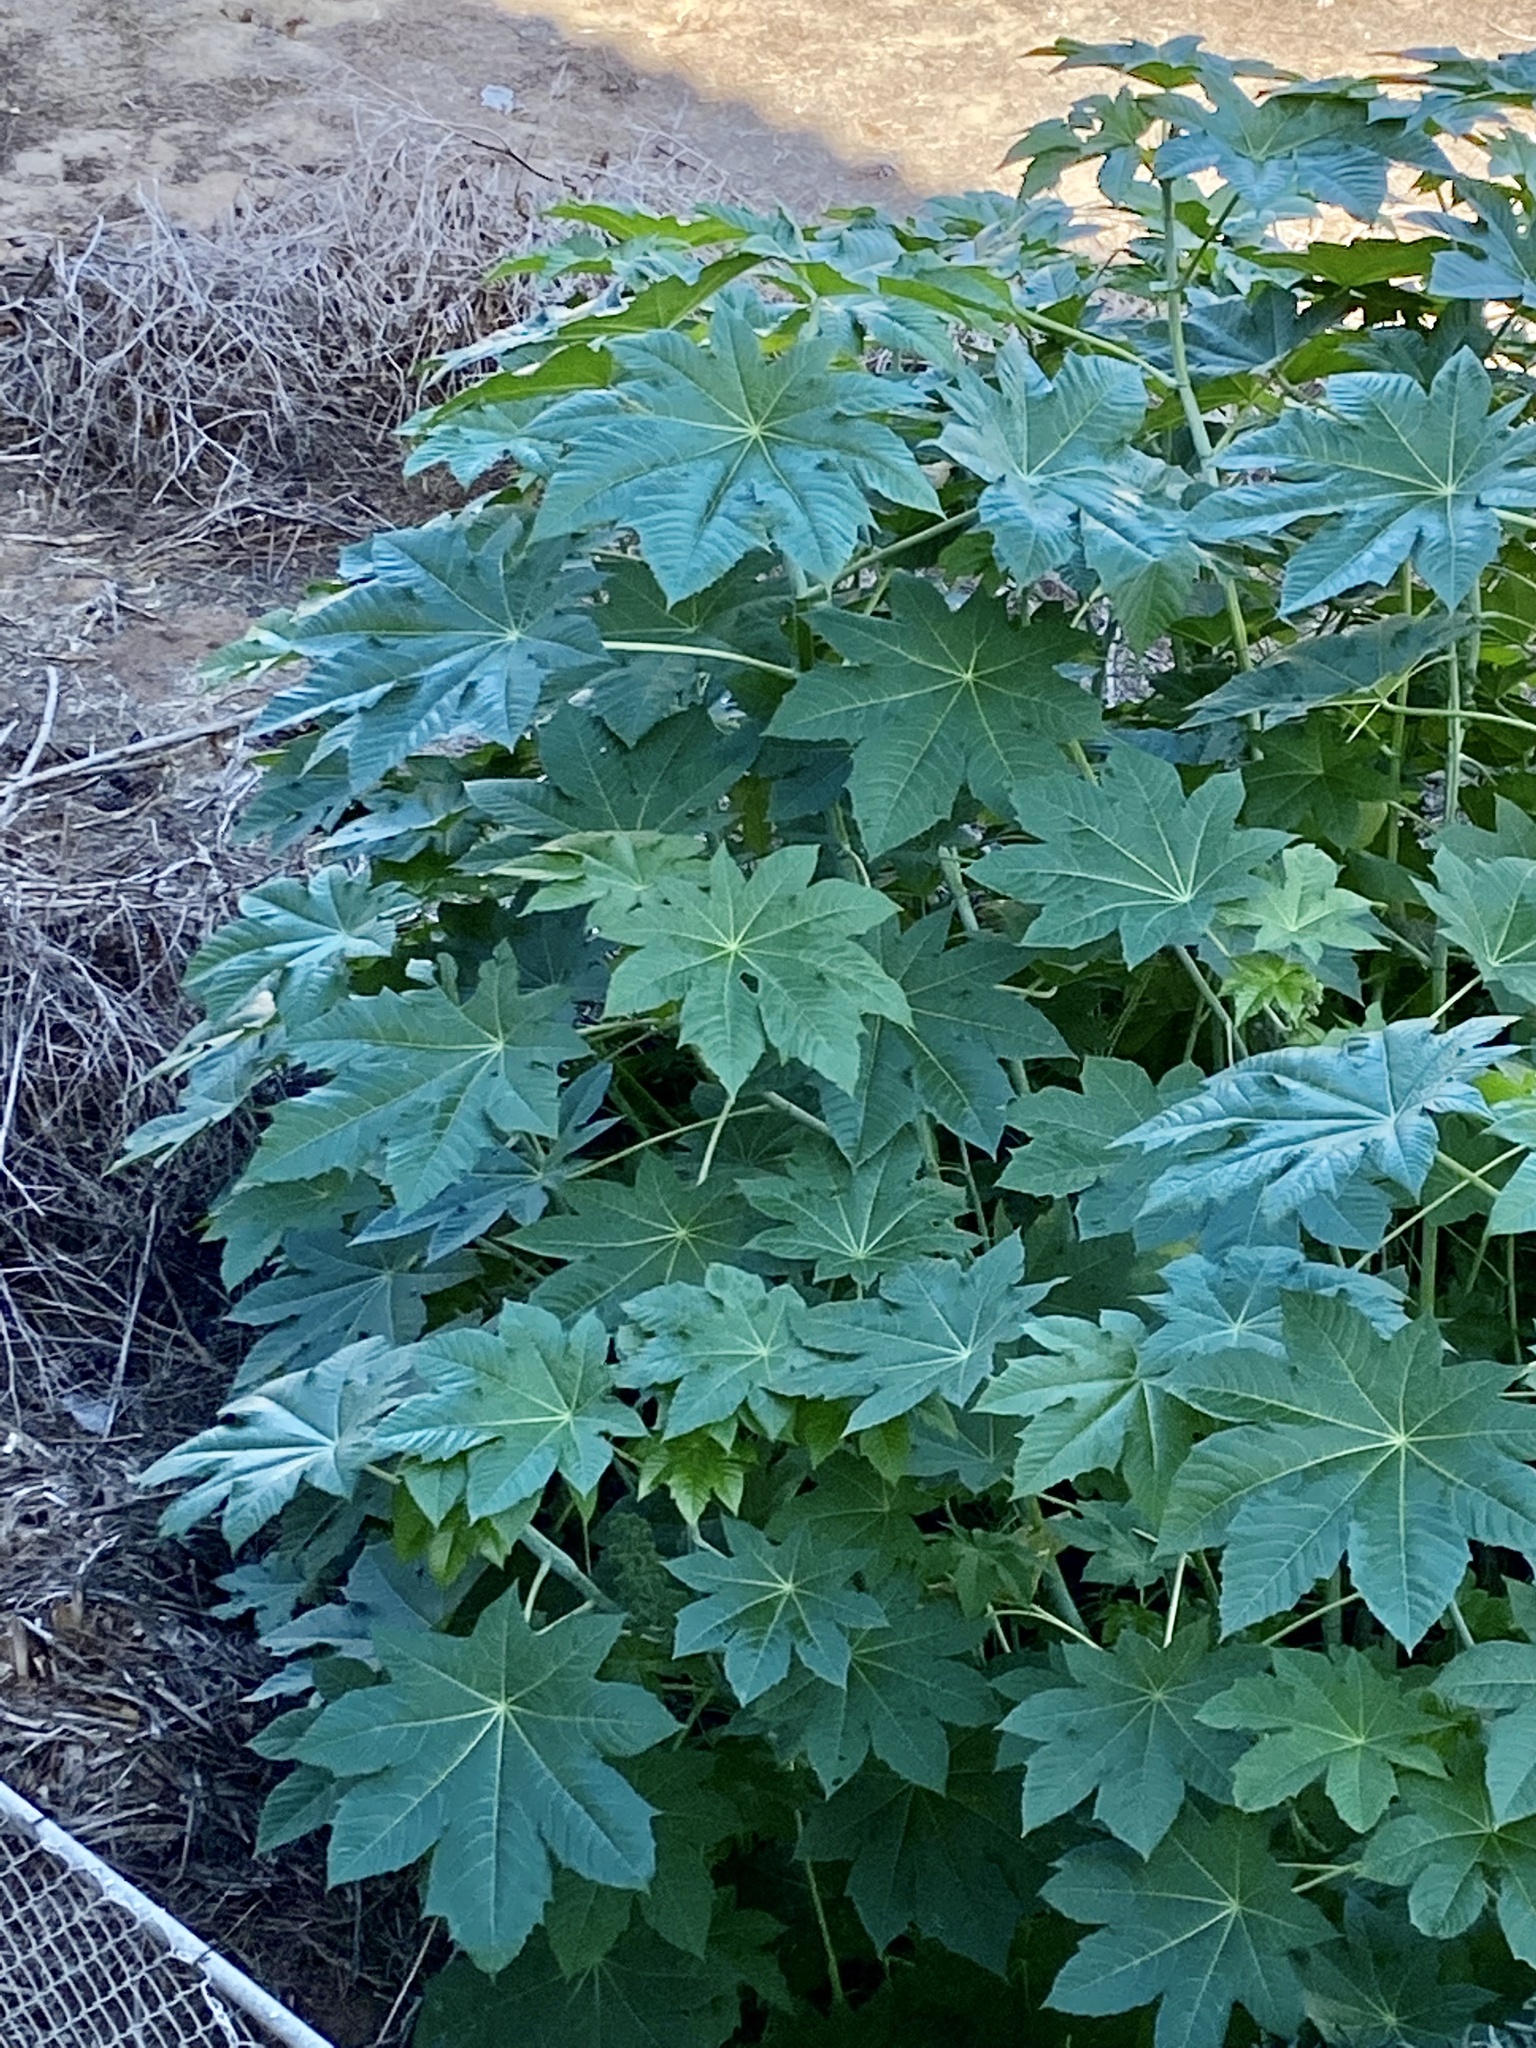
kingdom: Plantae
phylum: Tracheophyta
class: Magnoliopsida
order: Malpighiales
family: Euphorbiaceae
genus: Ricinus
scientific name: Ricinus communis
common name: Castor-oil-plant
